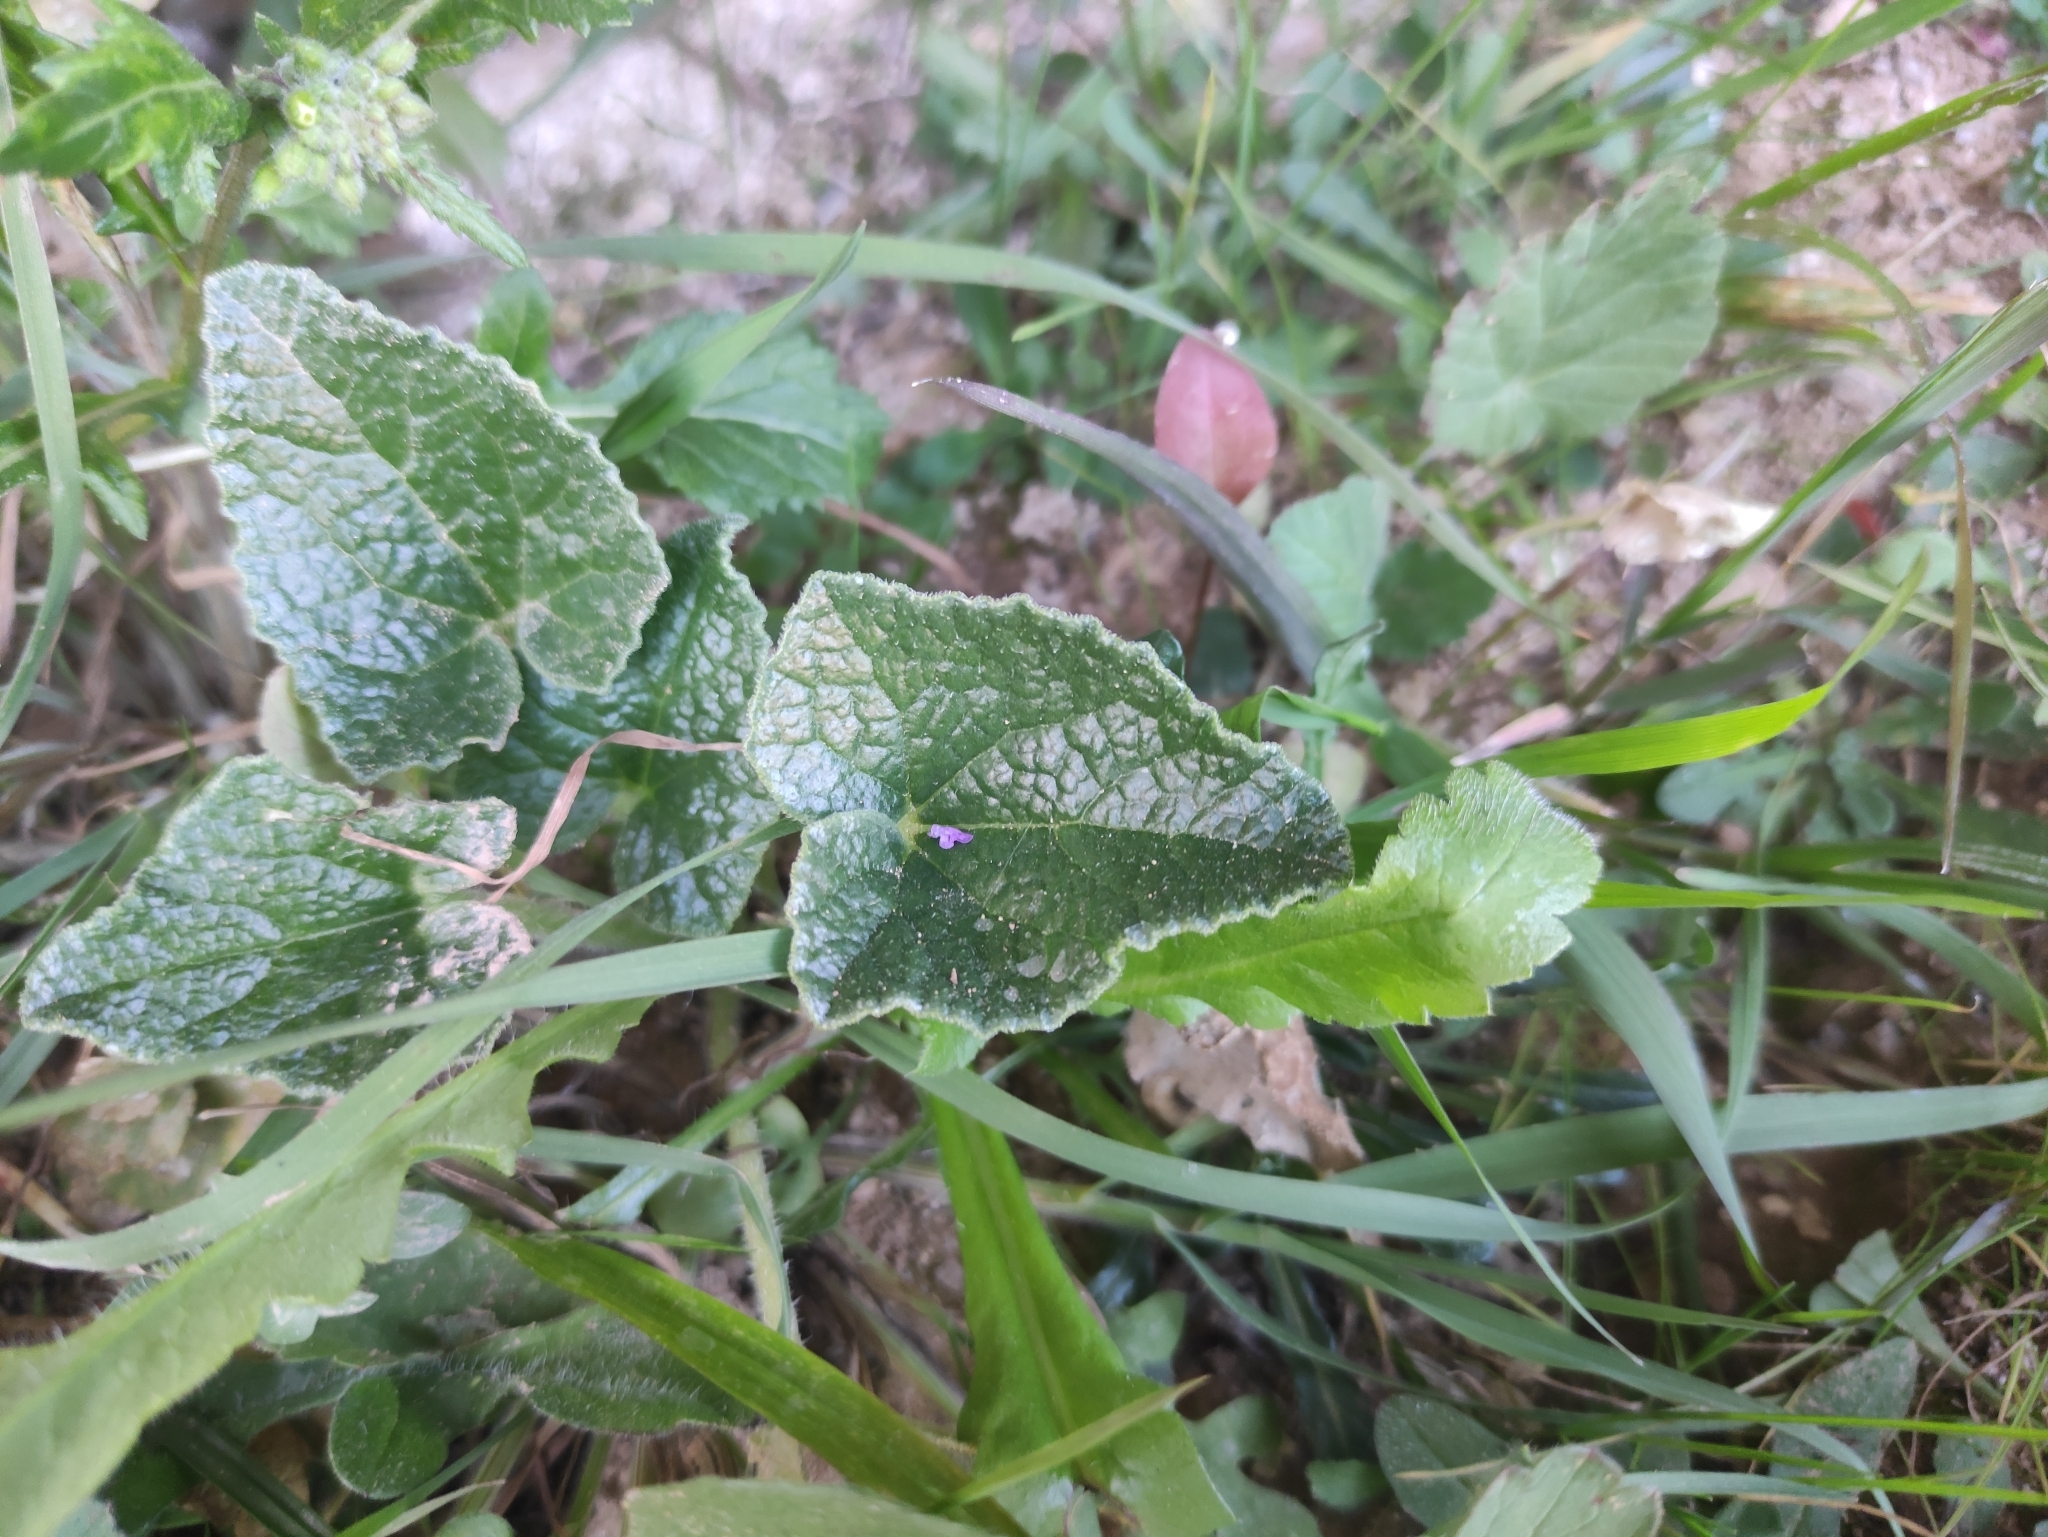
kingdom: Plantae
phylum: Tracheophyta
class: Magnoliopsida
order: Cucurbitales
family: Cucurbitaceae
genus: Ecballium
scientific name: Ecballium elaterium
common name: Squirting cucumber
